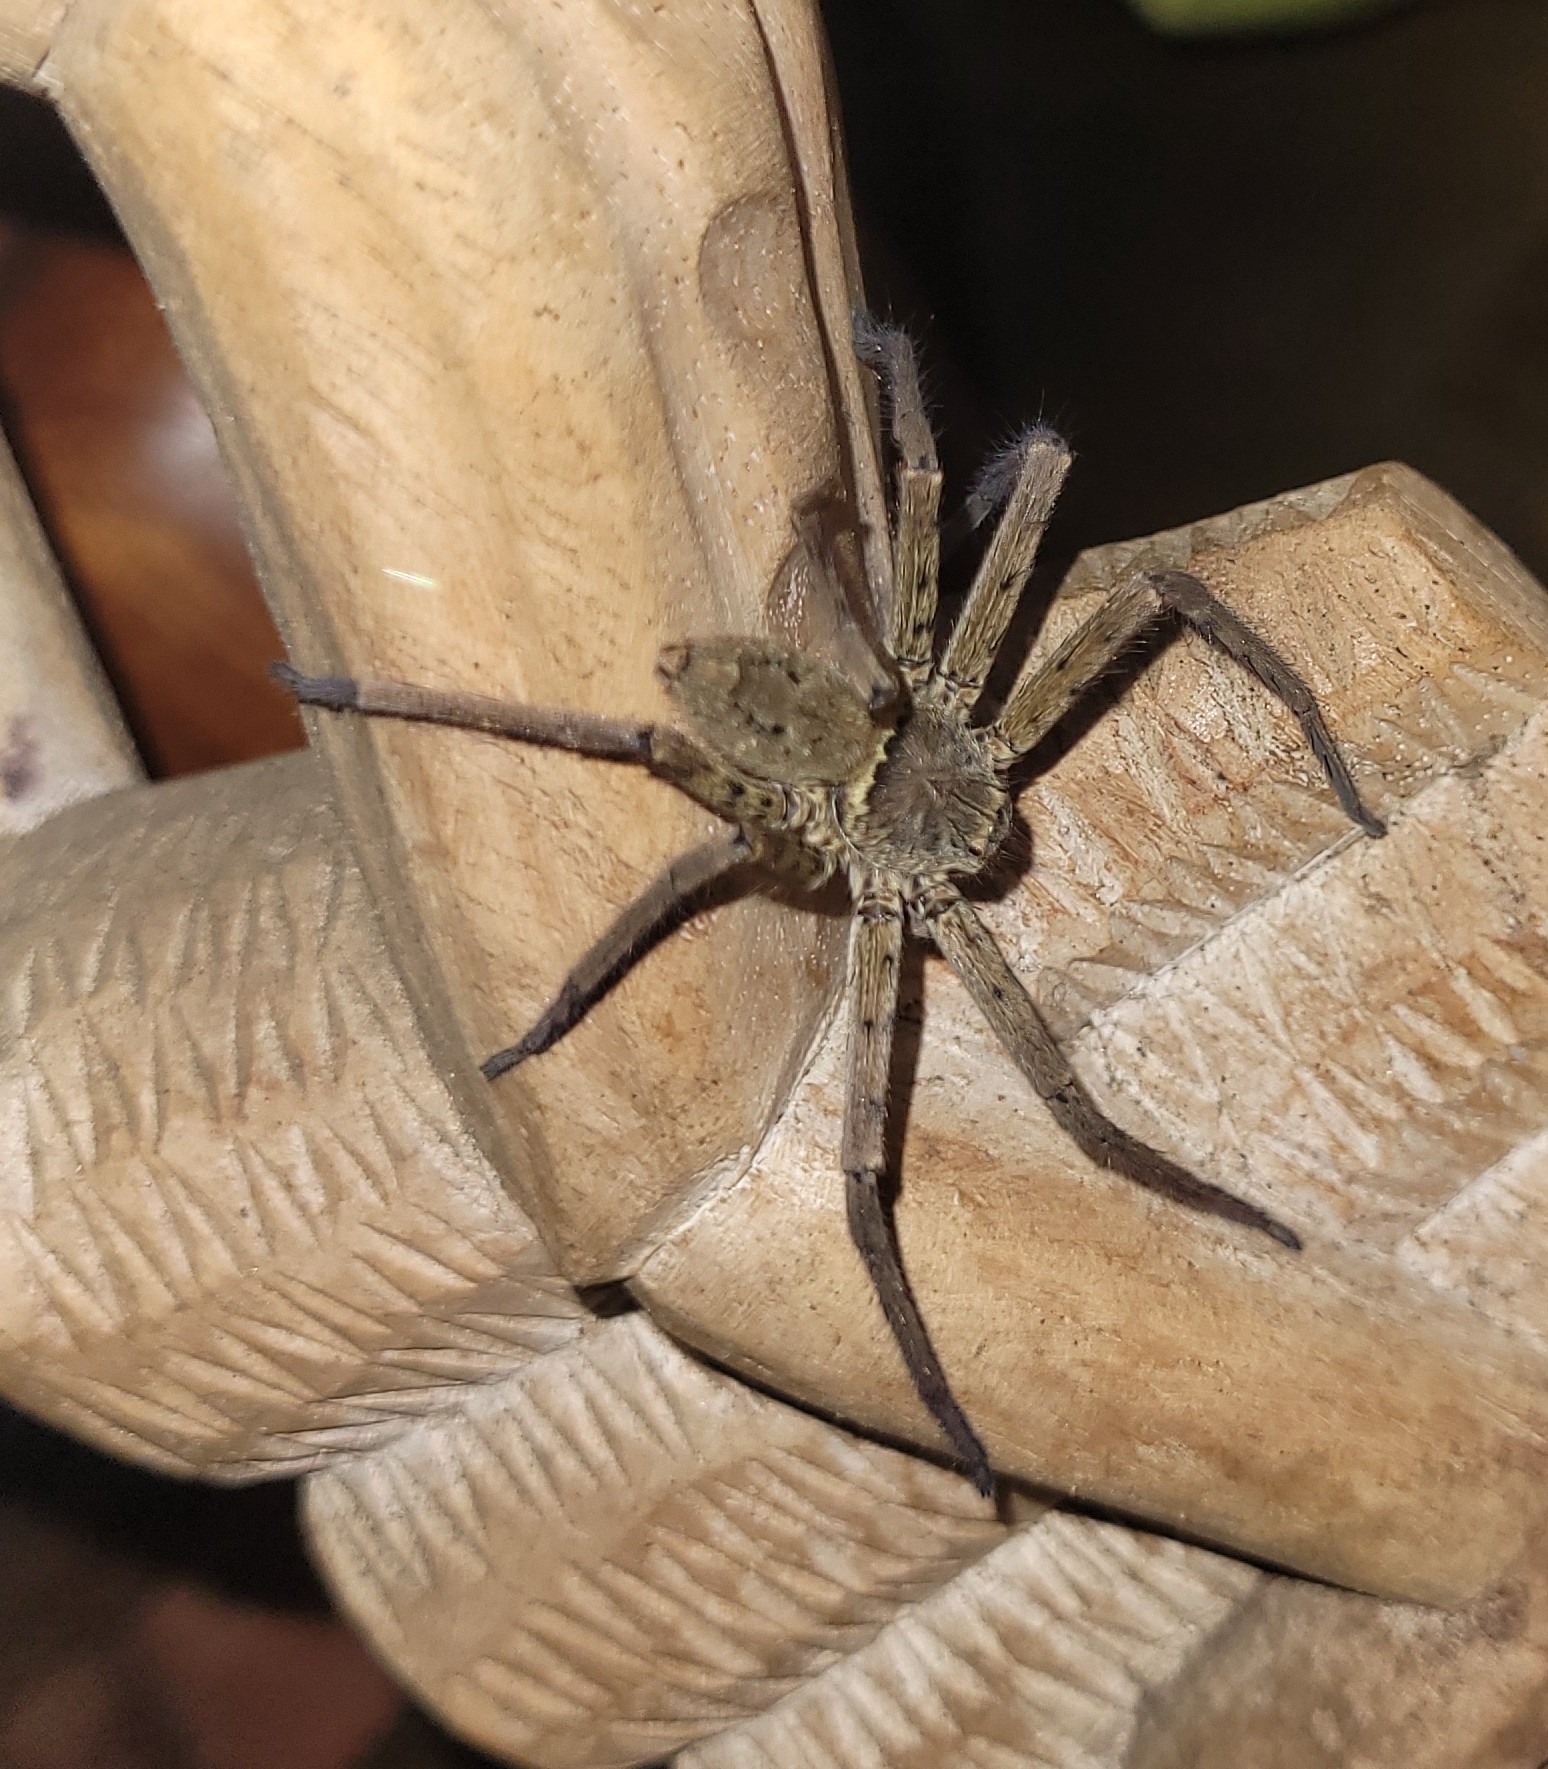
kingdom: Animalia
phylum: Arthropoda
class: Arachnida
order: Araneae
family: Sparassidae
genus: Heteropoda
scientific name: Heteropoda venatoria
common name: Huntsman spider
